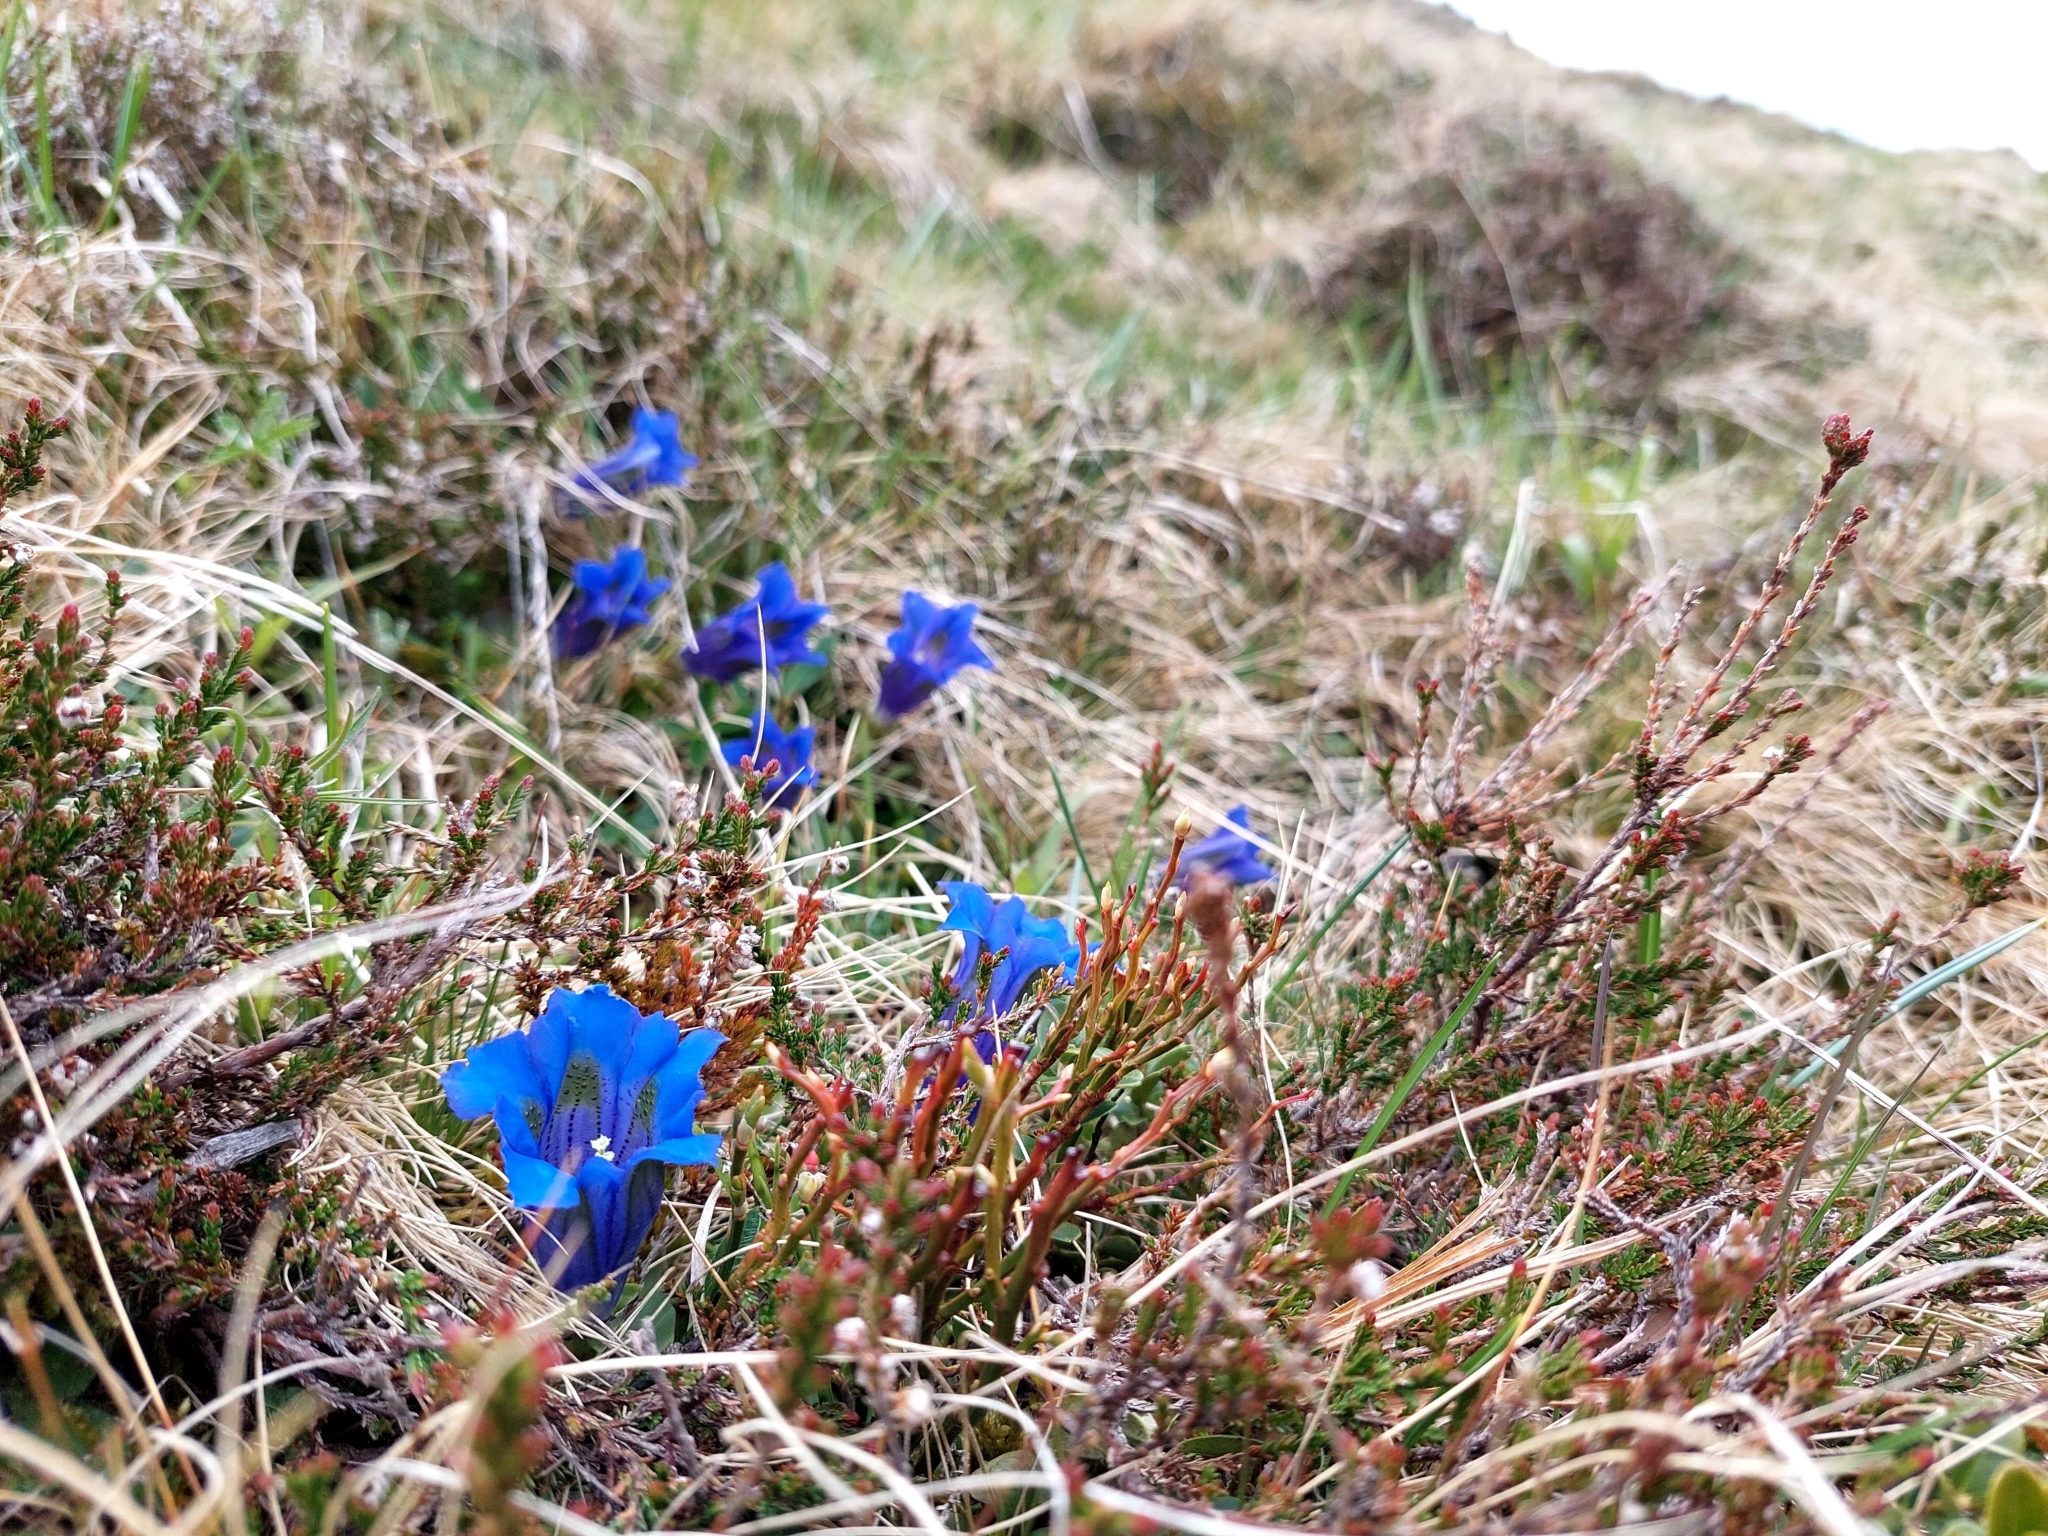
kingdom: Plantae
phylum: Tracheophyta
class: Magnoliopsida
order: Gentianales
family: Gentianaceae
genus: Gentiana
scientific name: Gentiana acaulis
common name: Trumpet gentian
